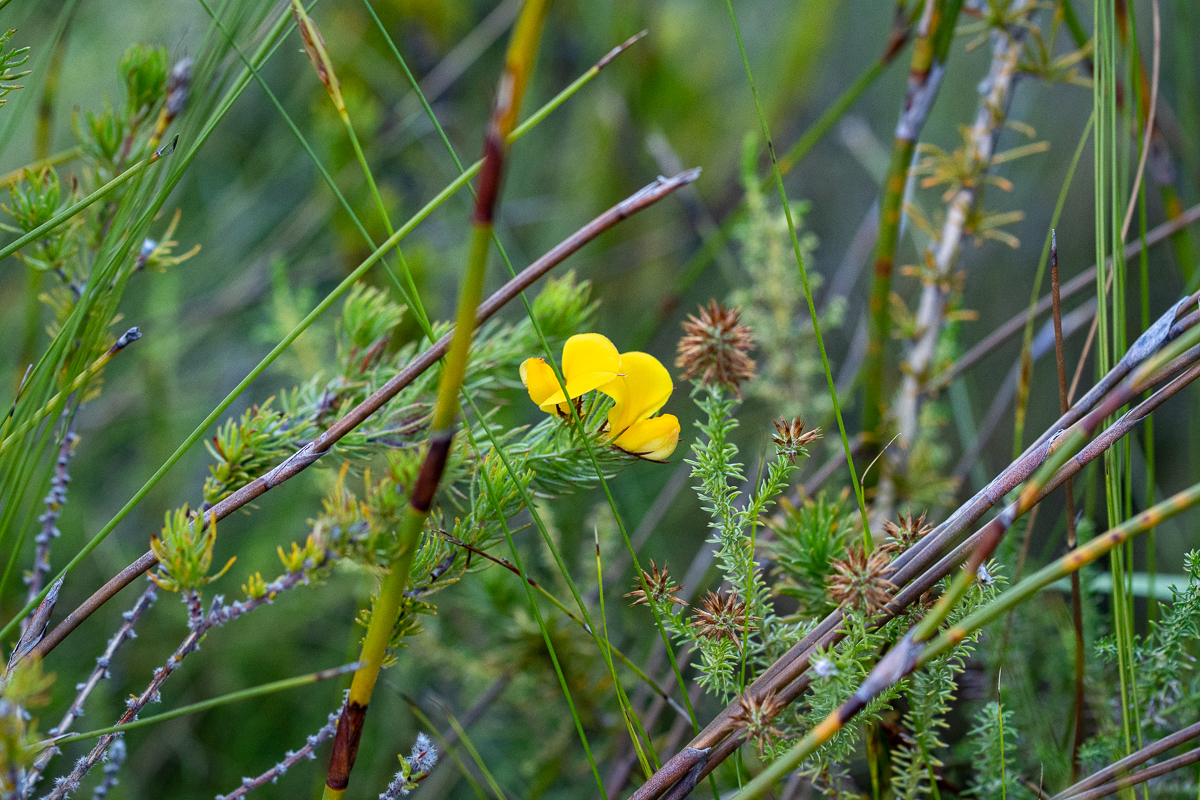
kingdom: Plantae
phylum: Tracheophyta
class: Magnoliopsida
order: Fabales
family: Fabaceae
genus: Aspalathus
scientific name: Aspalathus ciliaris
